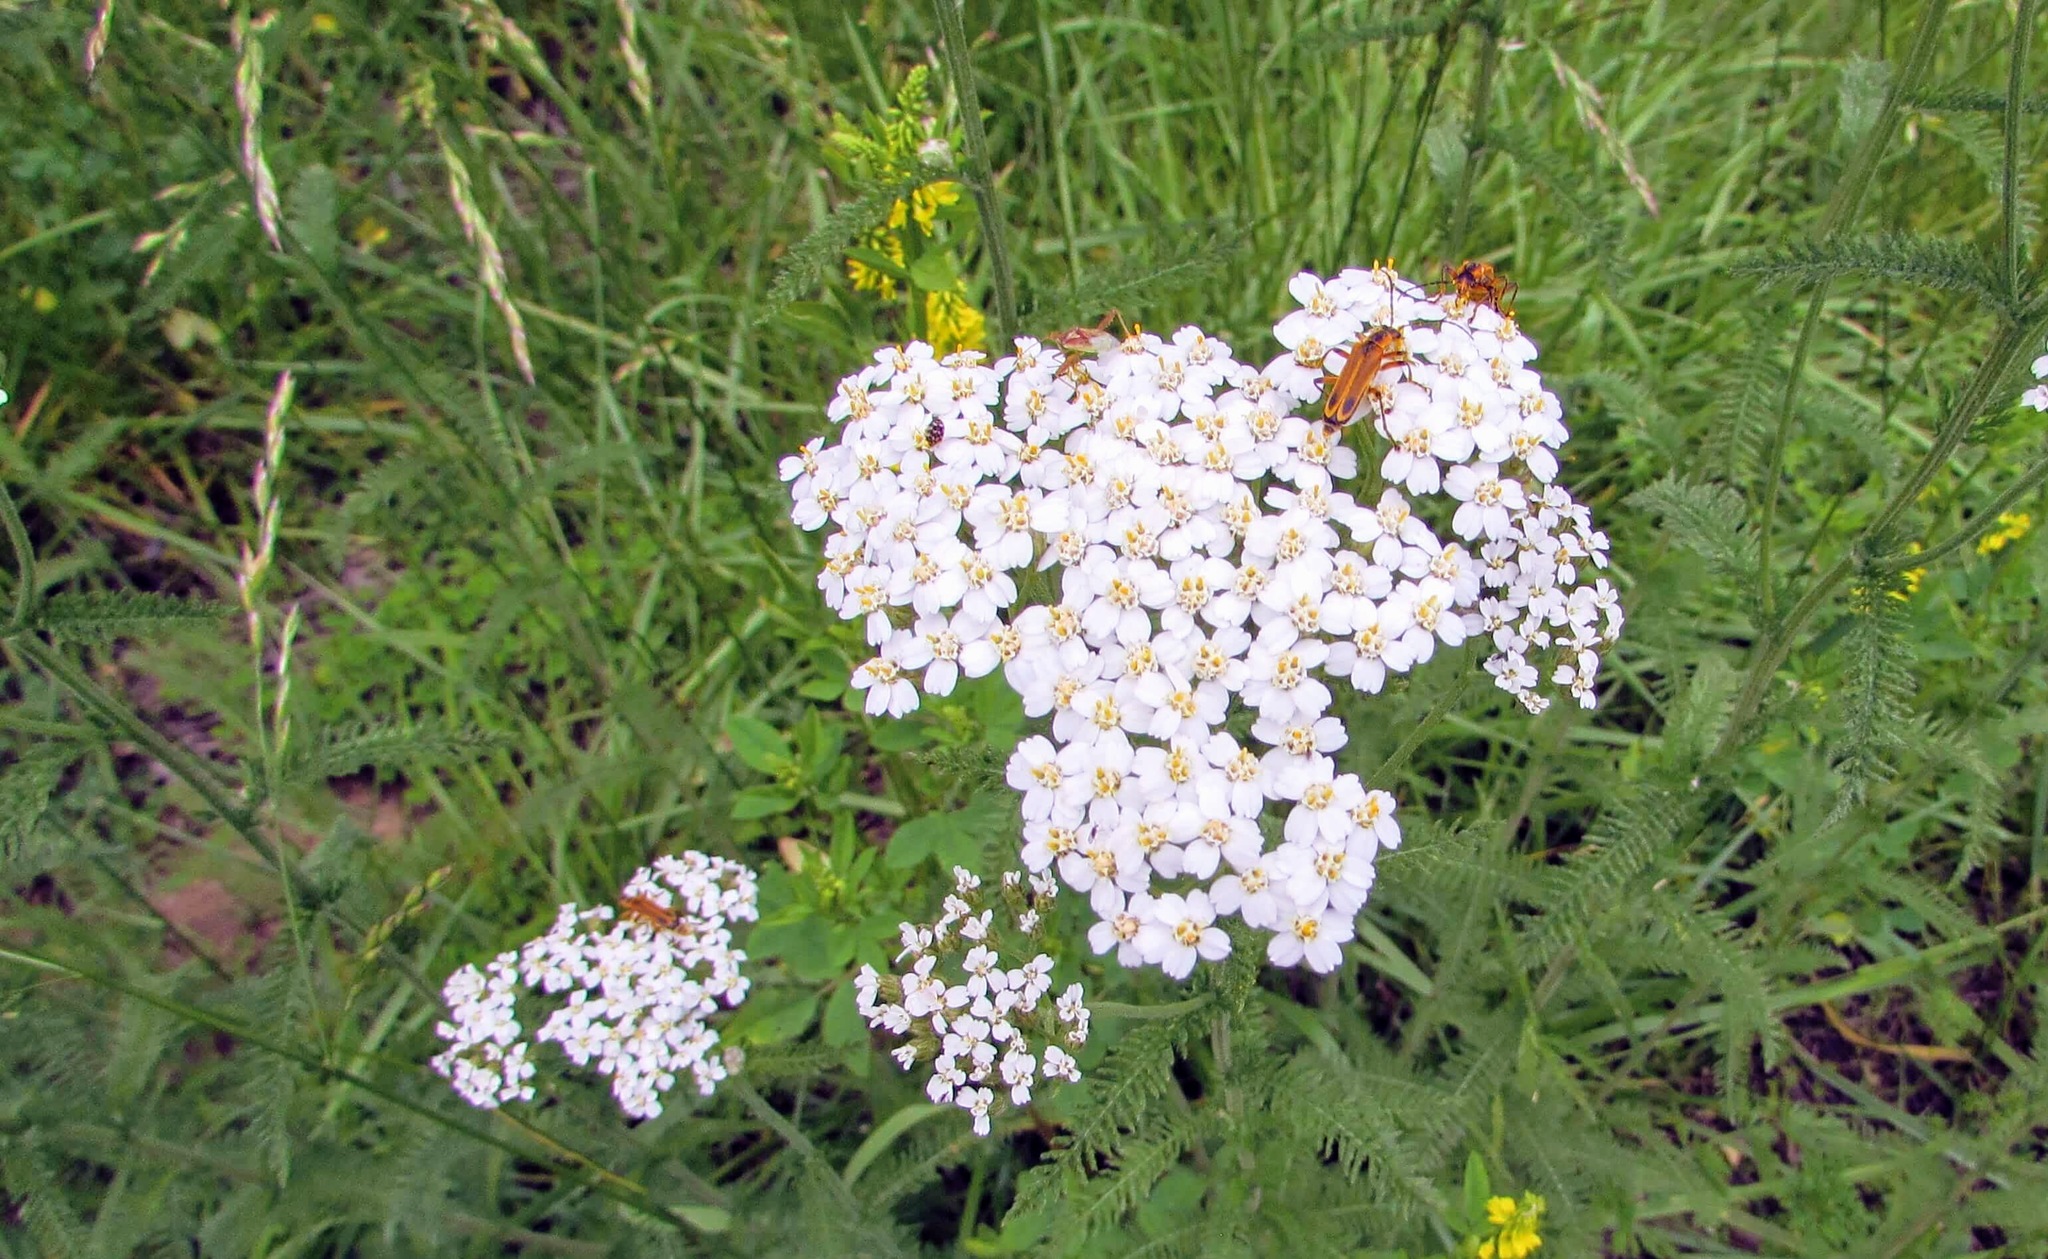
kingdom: Animalia
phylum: Arthropoda
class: Insecta
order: Coleoptera
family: Cantharidae
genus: Chauliognathus
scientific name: Chauliognathus marginatus
